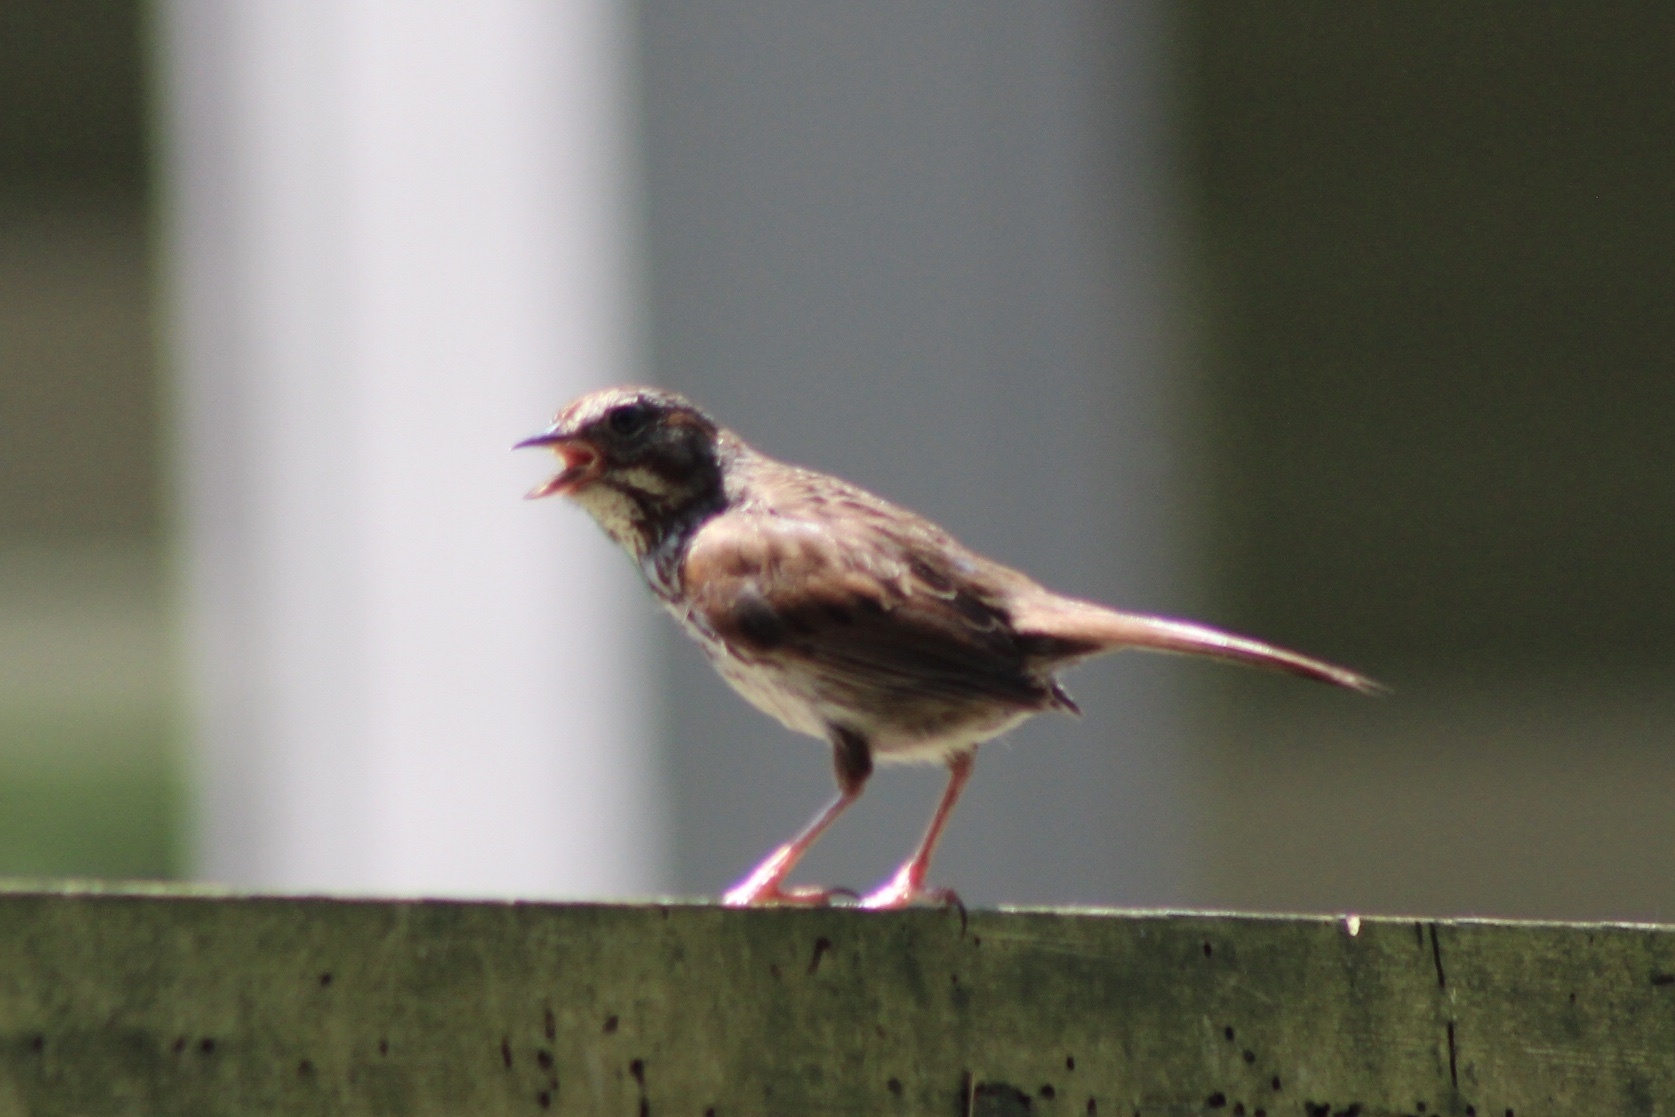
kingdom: Animalia
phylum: Chordata
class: Aves
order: Passeriformes
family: Passerellidae
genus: Melospiza
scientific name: Melospiza melodia
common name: Song sparrow
